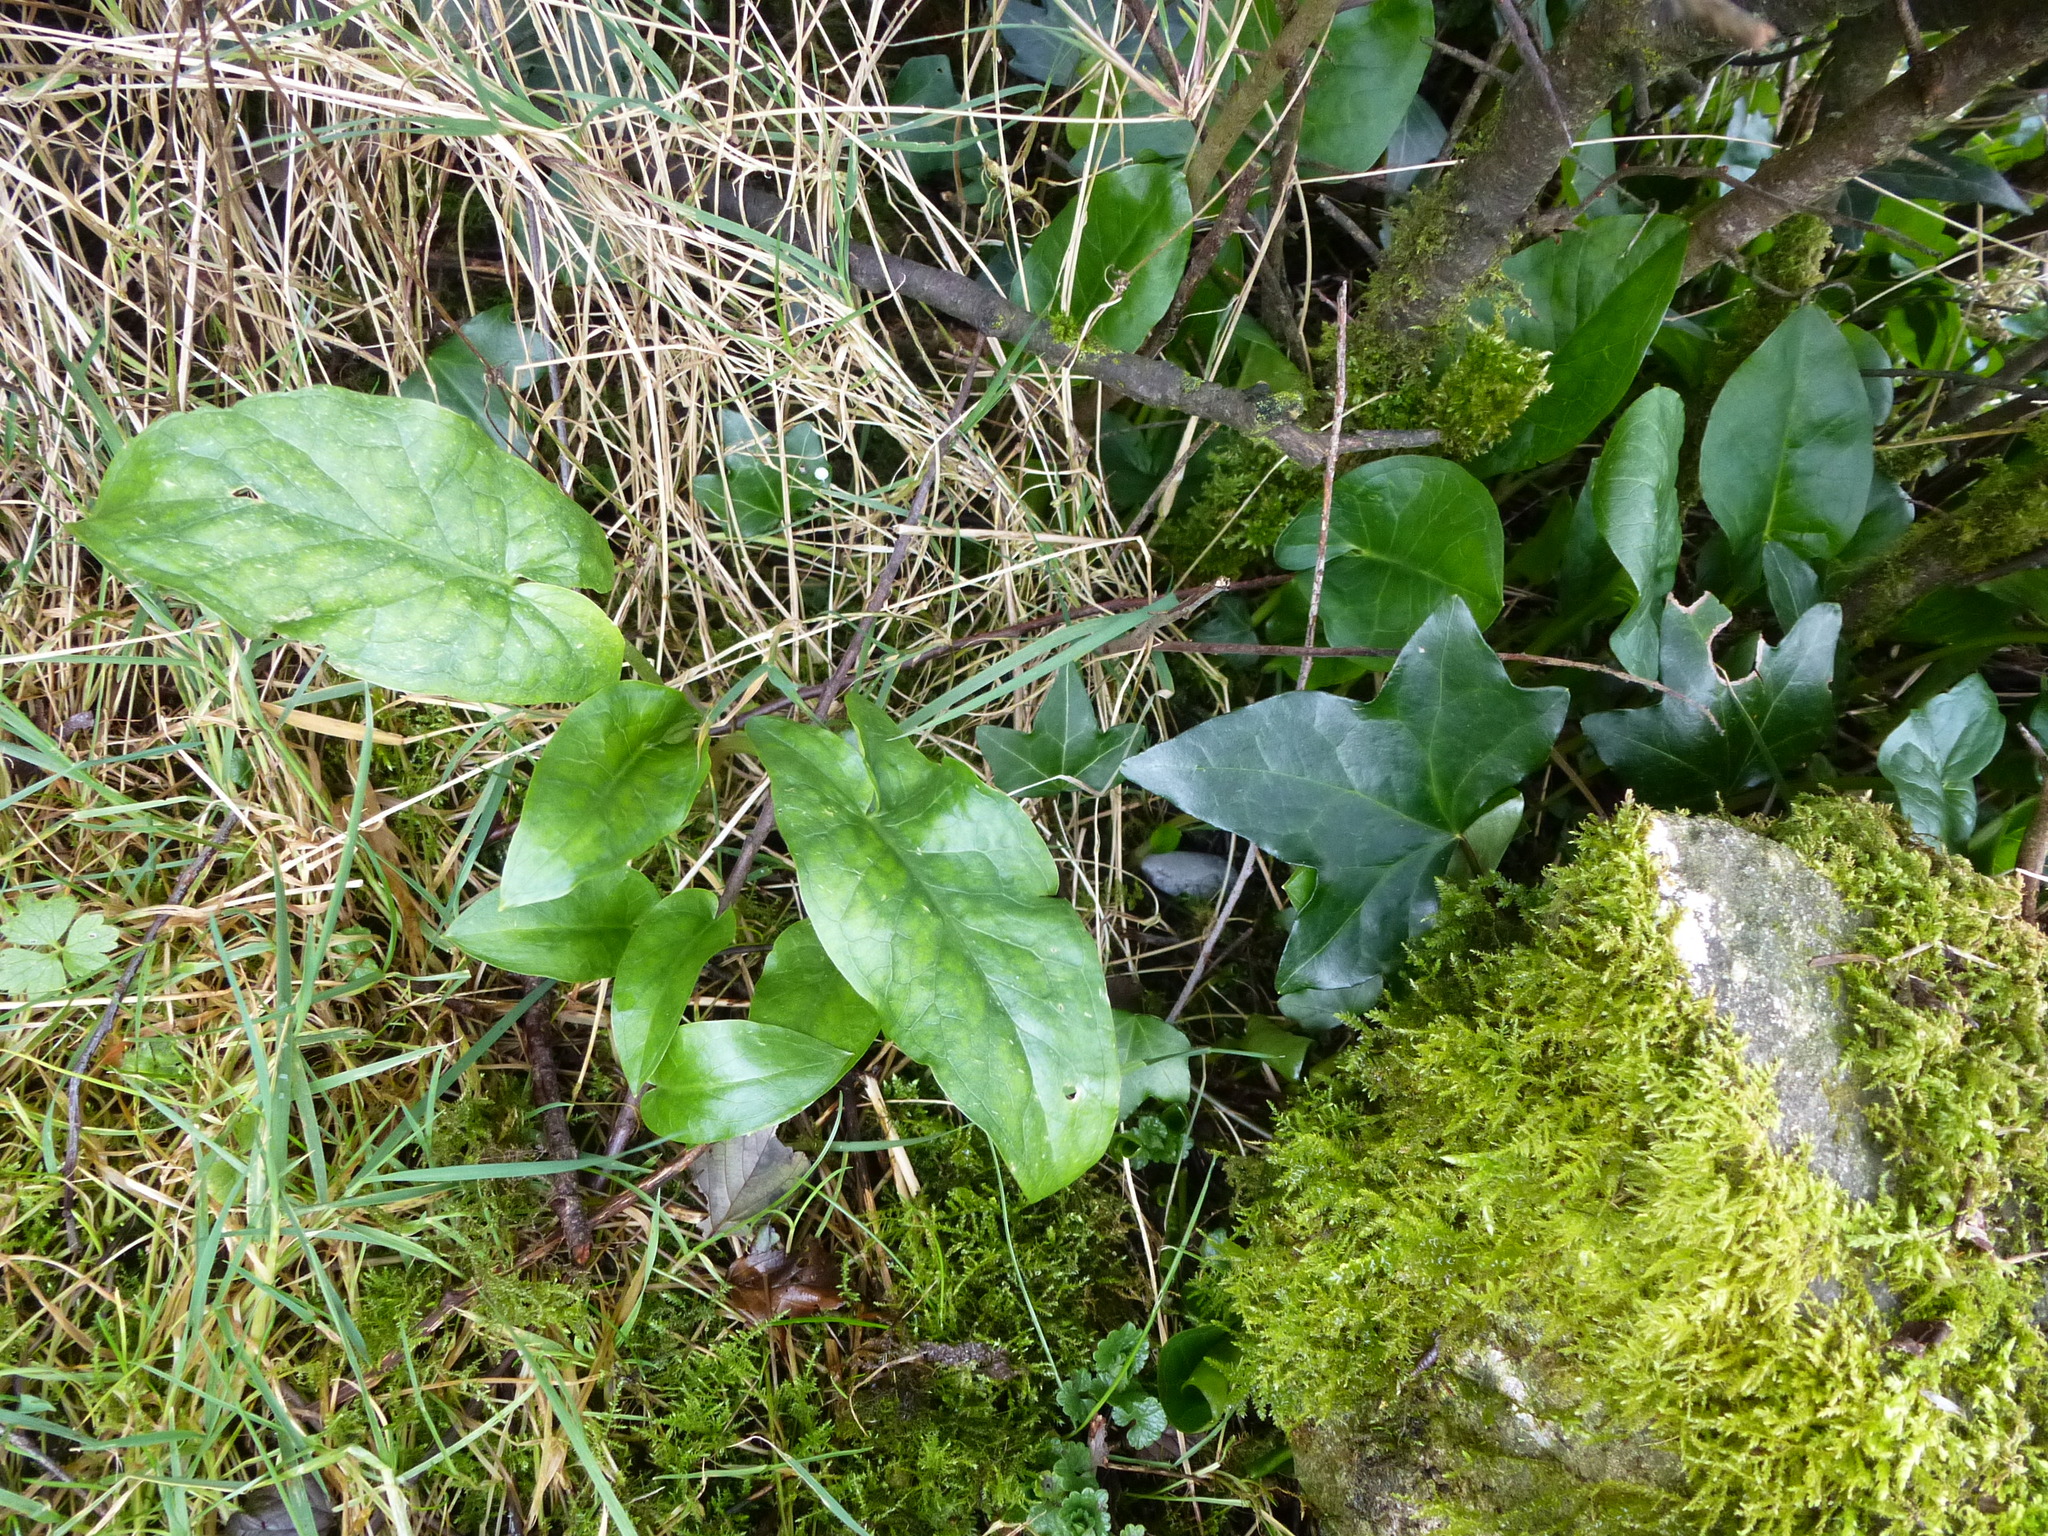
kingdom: Plantae
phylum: Tracheophyta
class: Liliopsida
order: Alismatales
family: Araceae
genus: Arum
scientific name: Arum maculatum
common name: Lords-and-ladies
